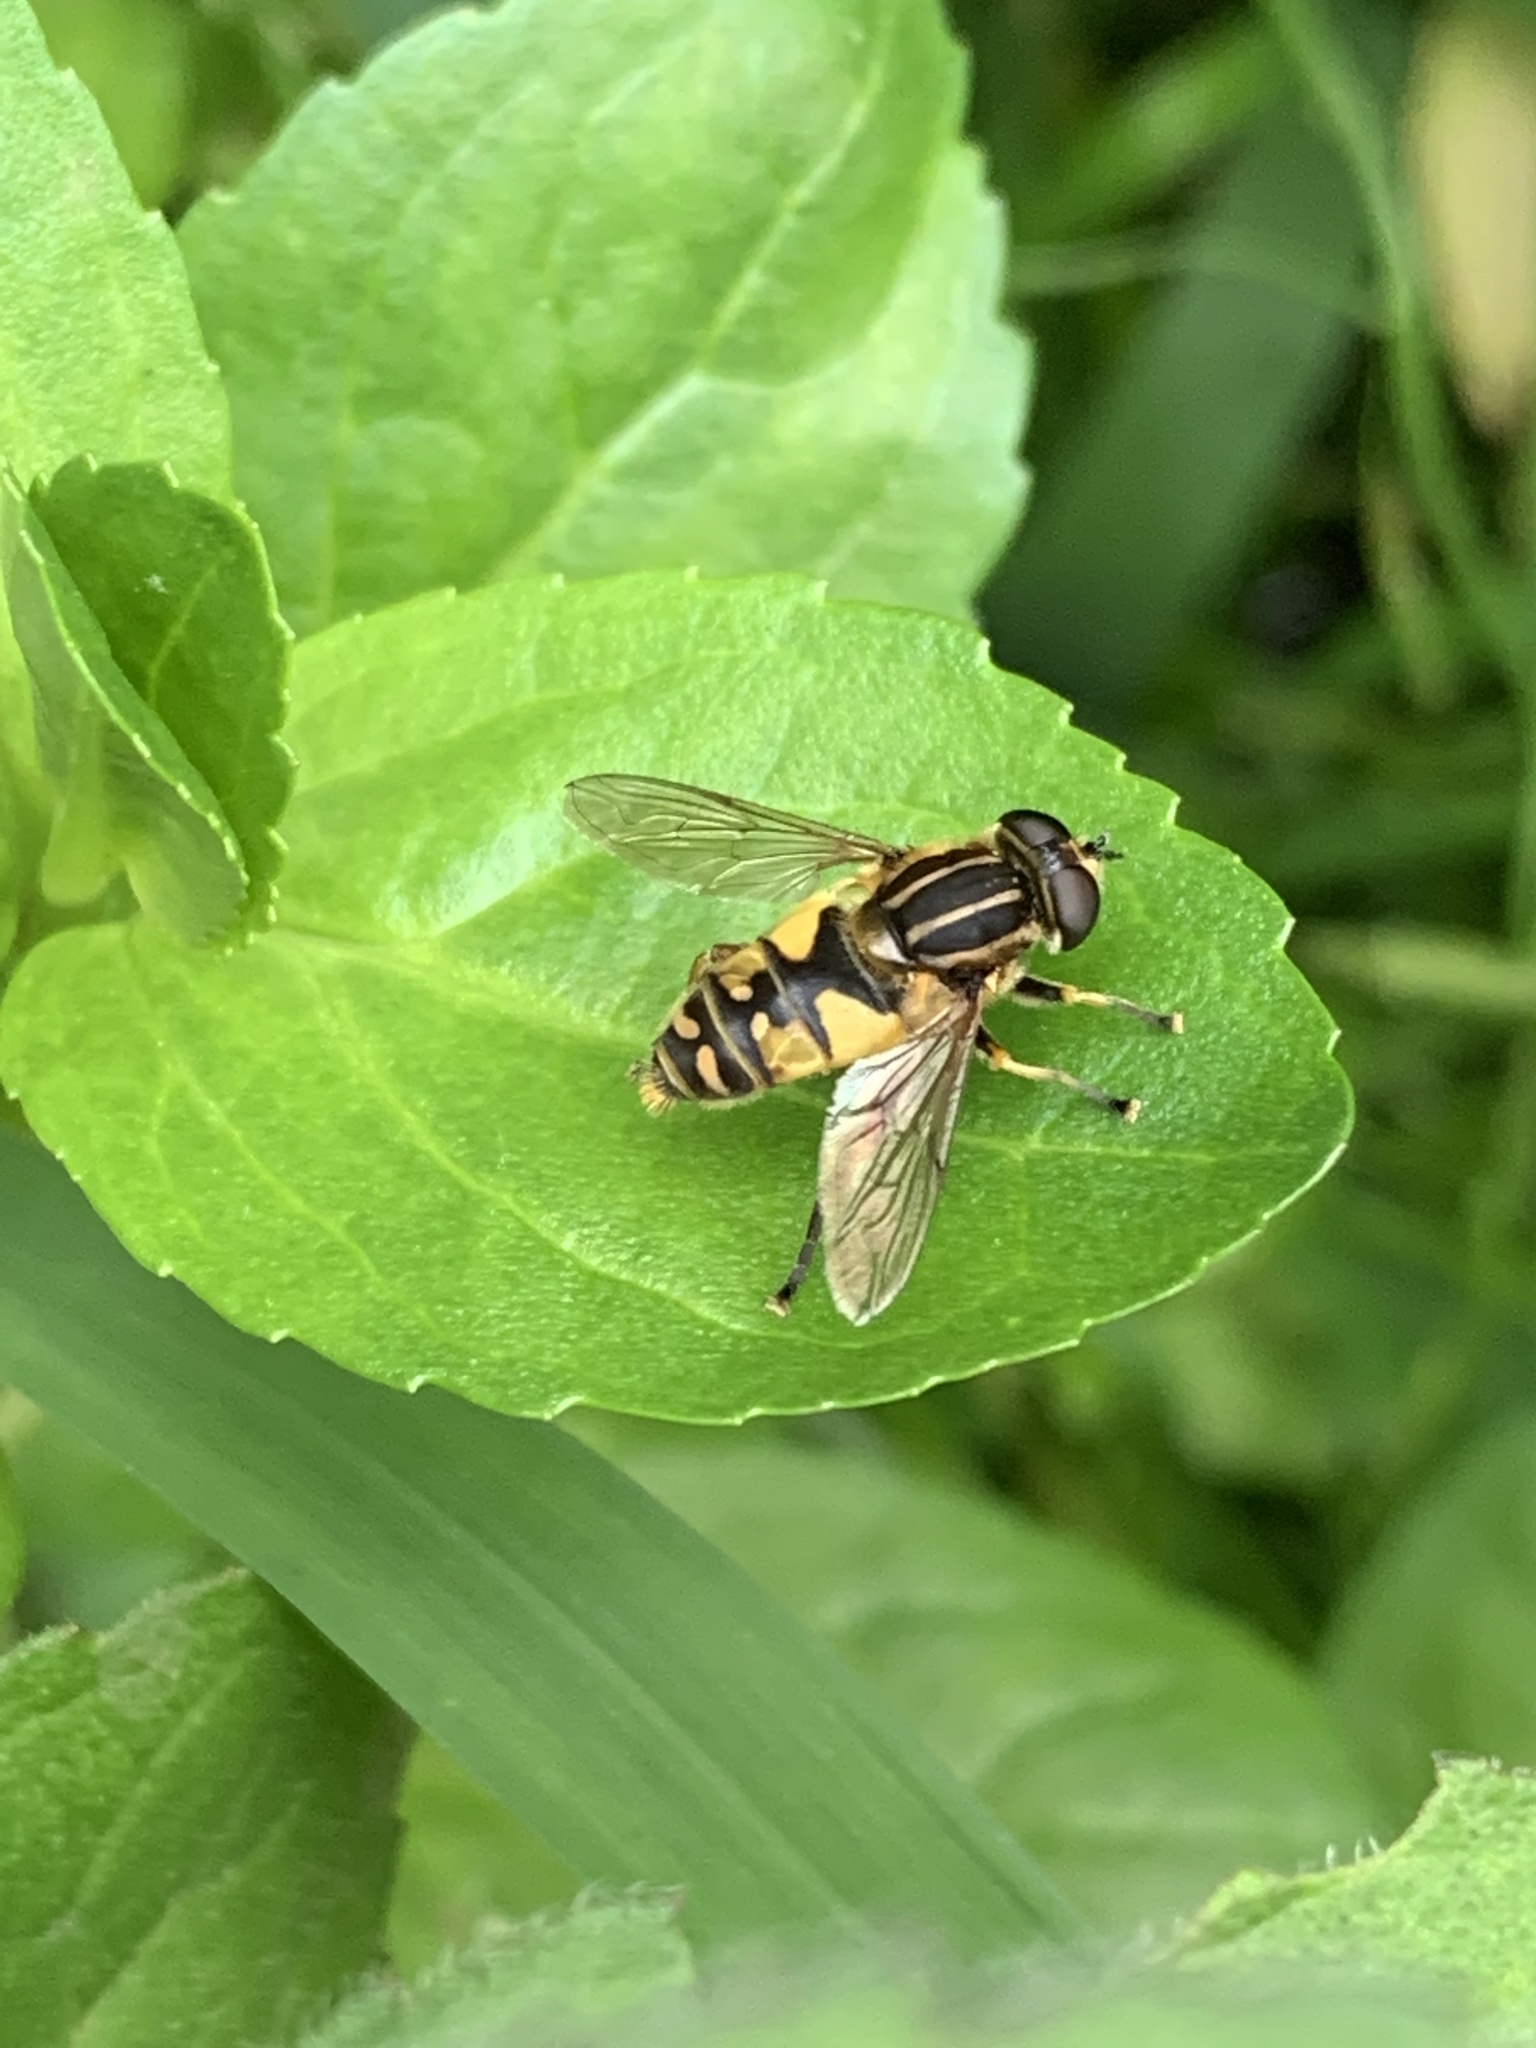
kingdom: Animalia
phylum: Arthropoda
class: Insecta
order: Diptera
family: Syrphidae
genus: Helophilus
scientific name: Helophilus pendulus
